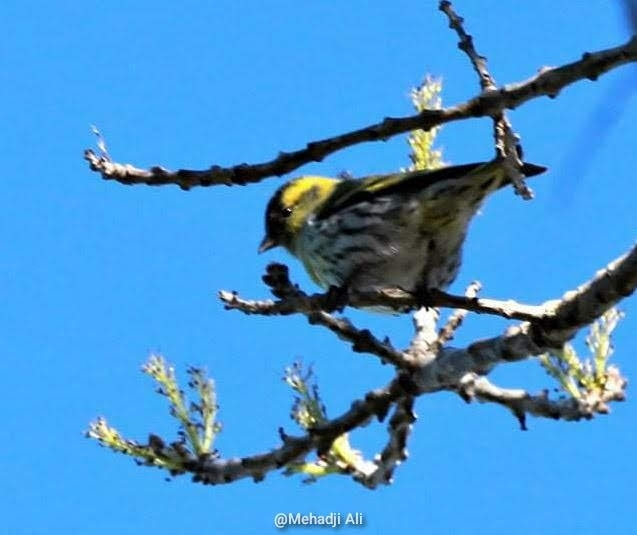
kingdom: Animalia
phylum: Chordata
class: Aves
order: Passeriformes
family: Fringillidae
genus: Spinus
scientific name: Spinus spinus
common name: Eurasian siskin
